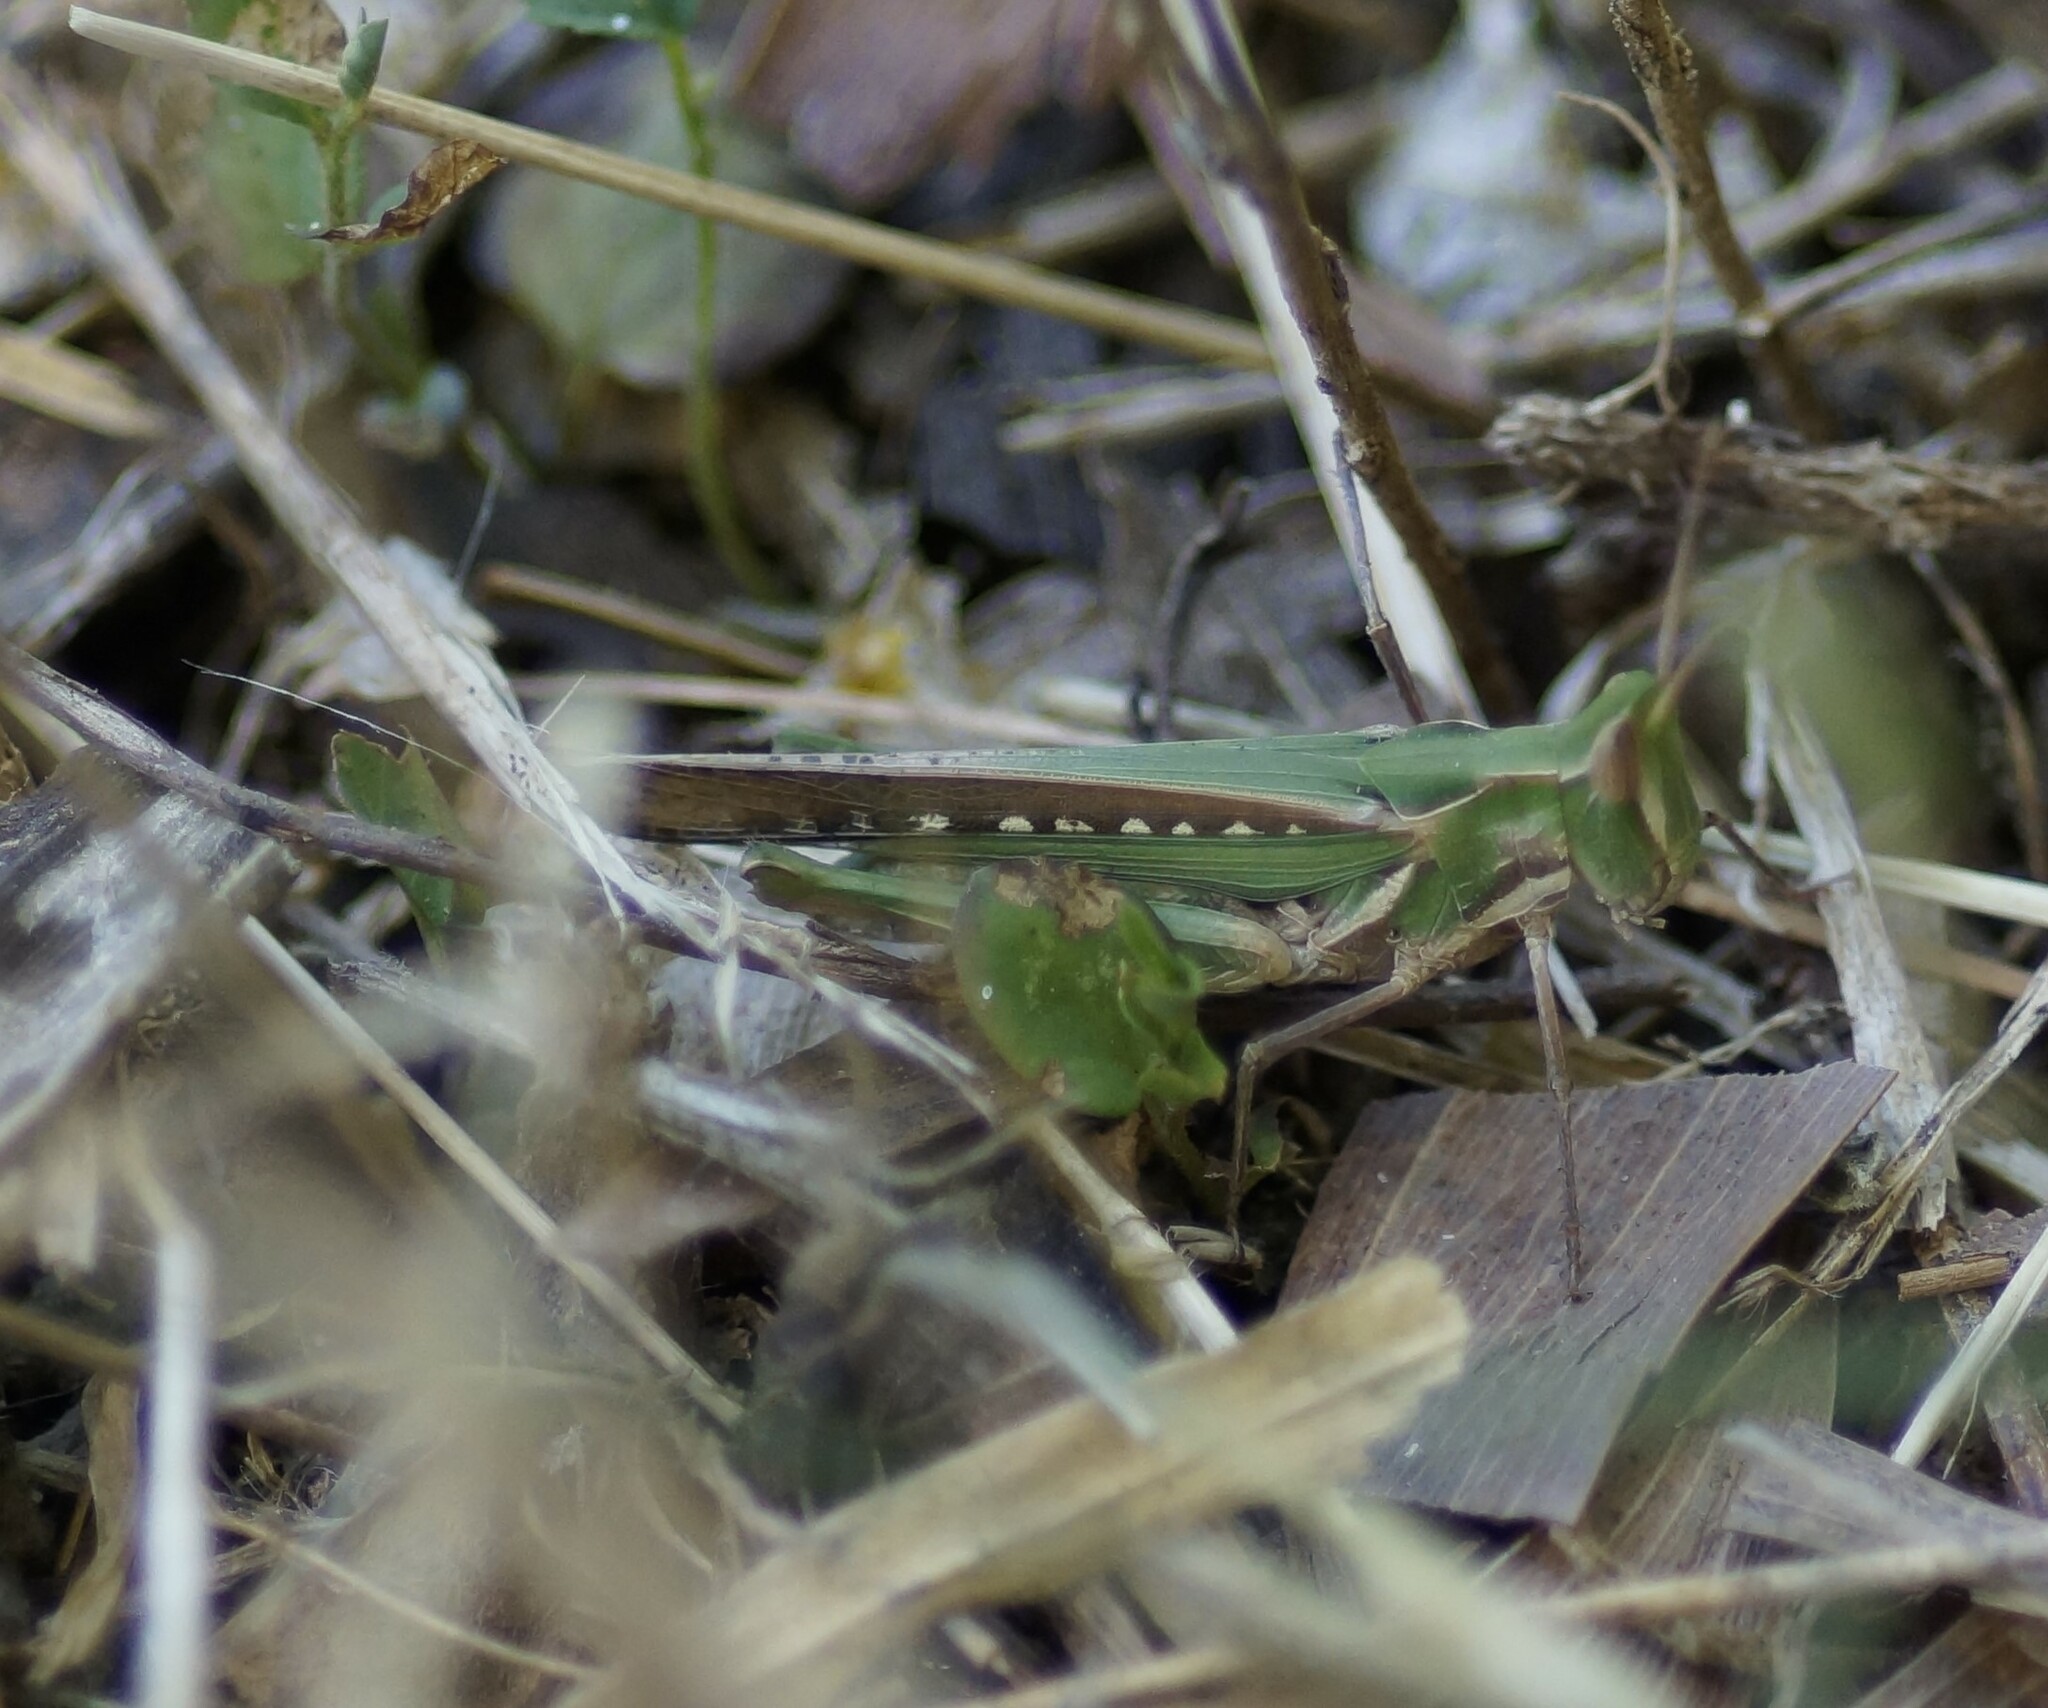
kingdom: Animalia
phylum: Arthropoda
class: Insecta
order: Orthoptera
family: Acrididae
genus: Froggattina
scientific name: Froggattina australis
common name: Froggatt's buzzer
